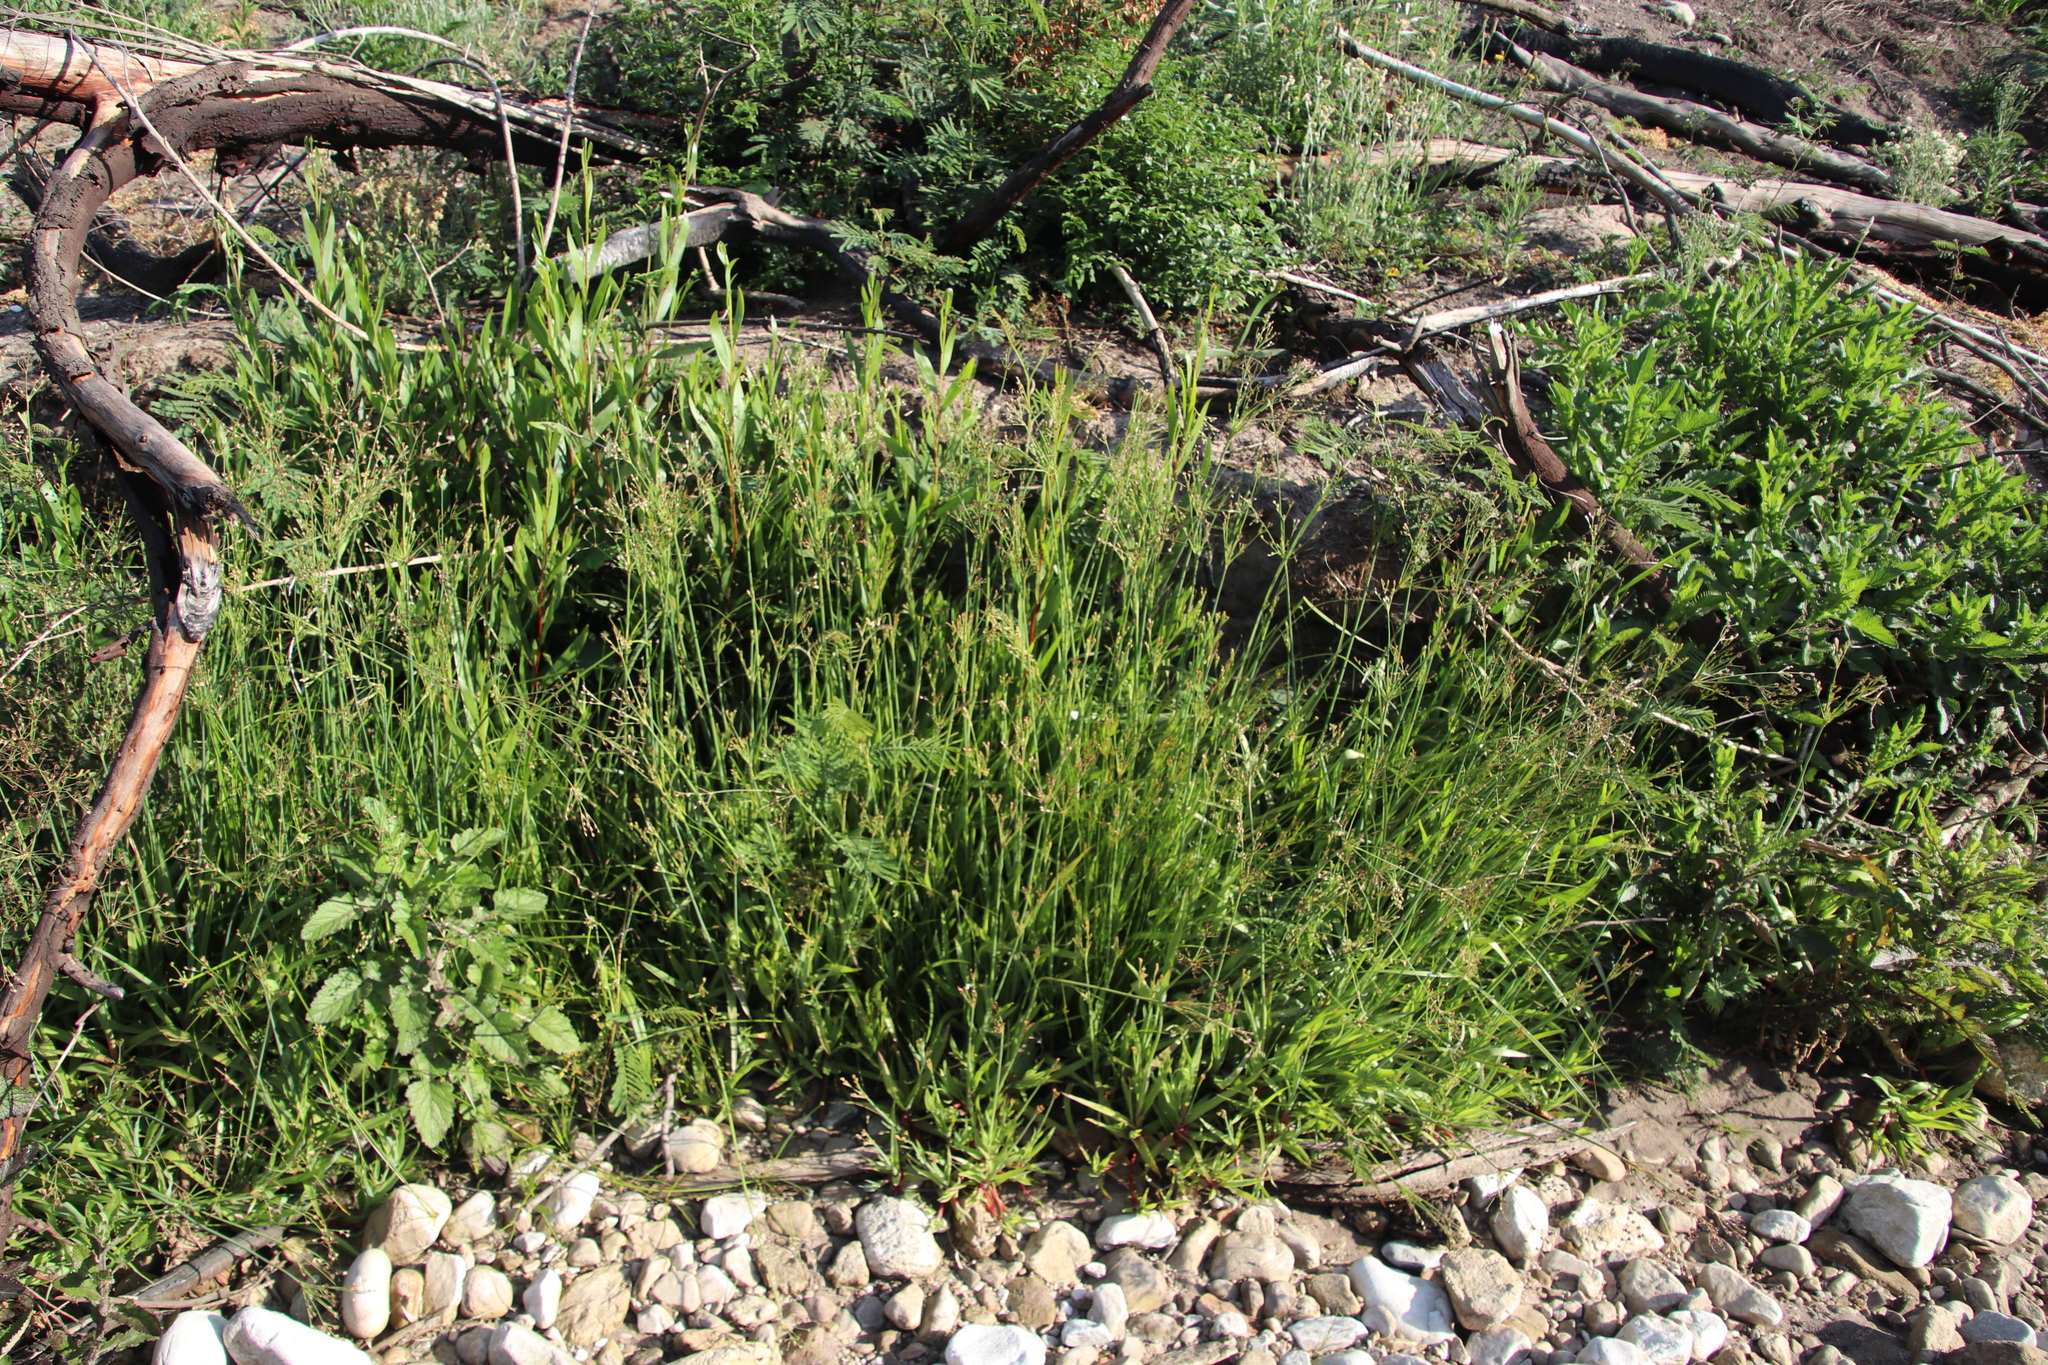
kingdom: Plantae
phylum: Tracheophyta
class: Liliopsida
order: Poales
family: Juncaceae
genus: Juncus
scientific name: Juncus lomatophyllus
